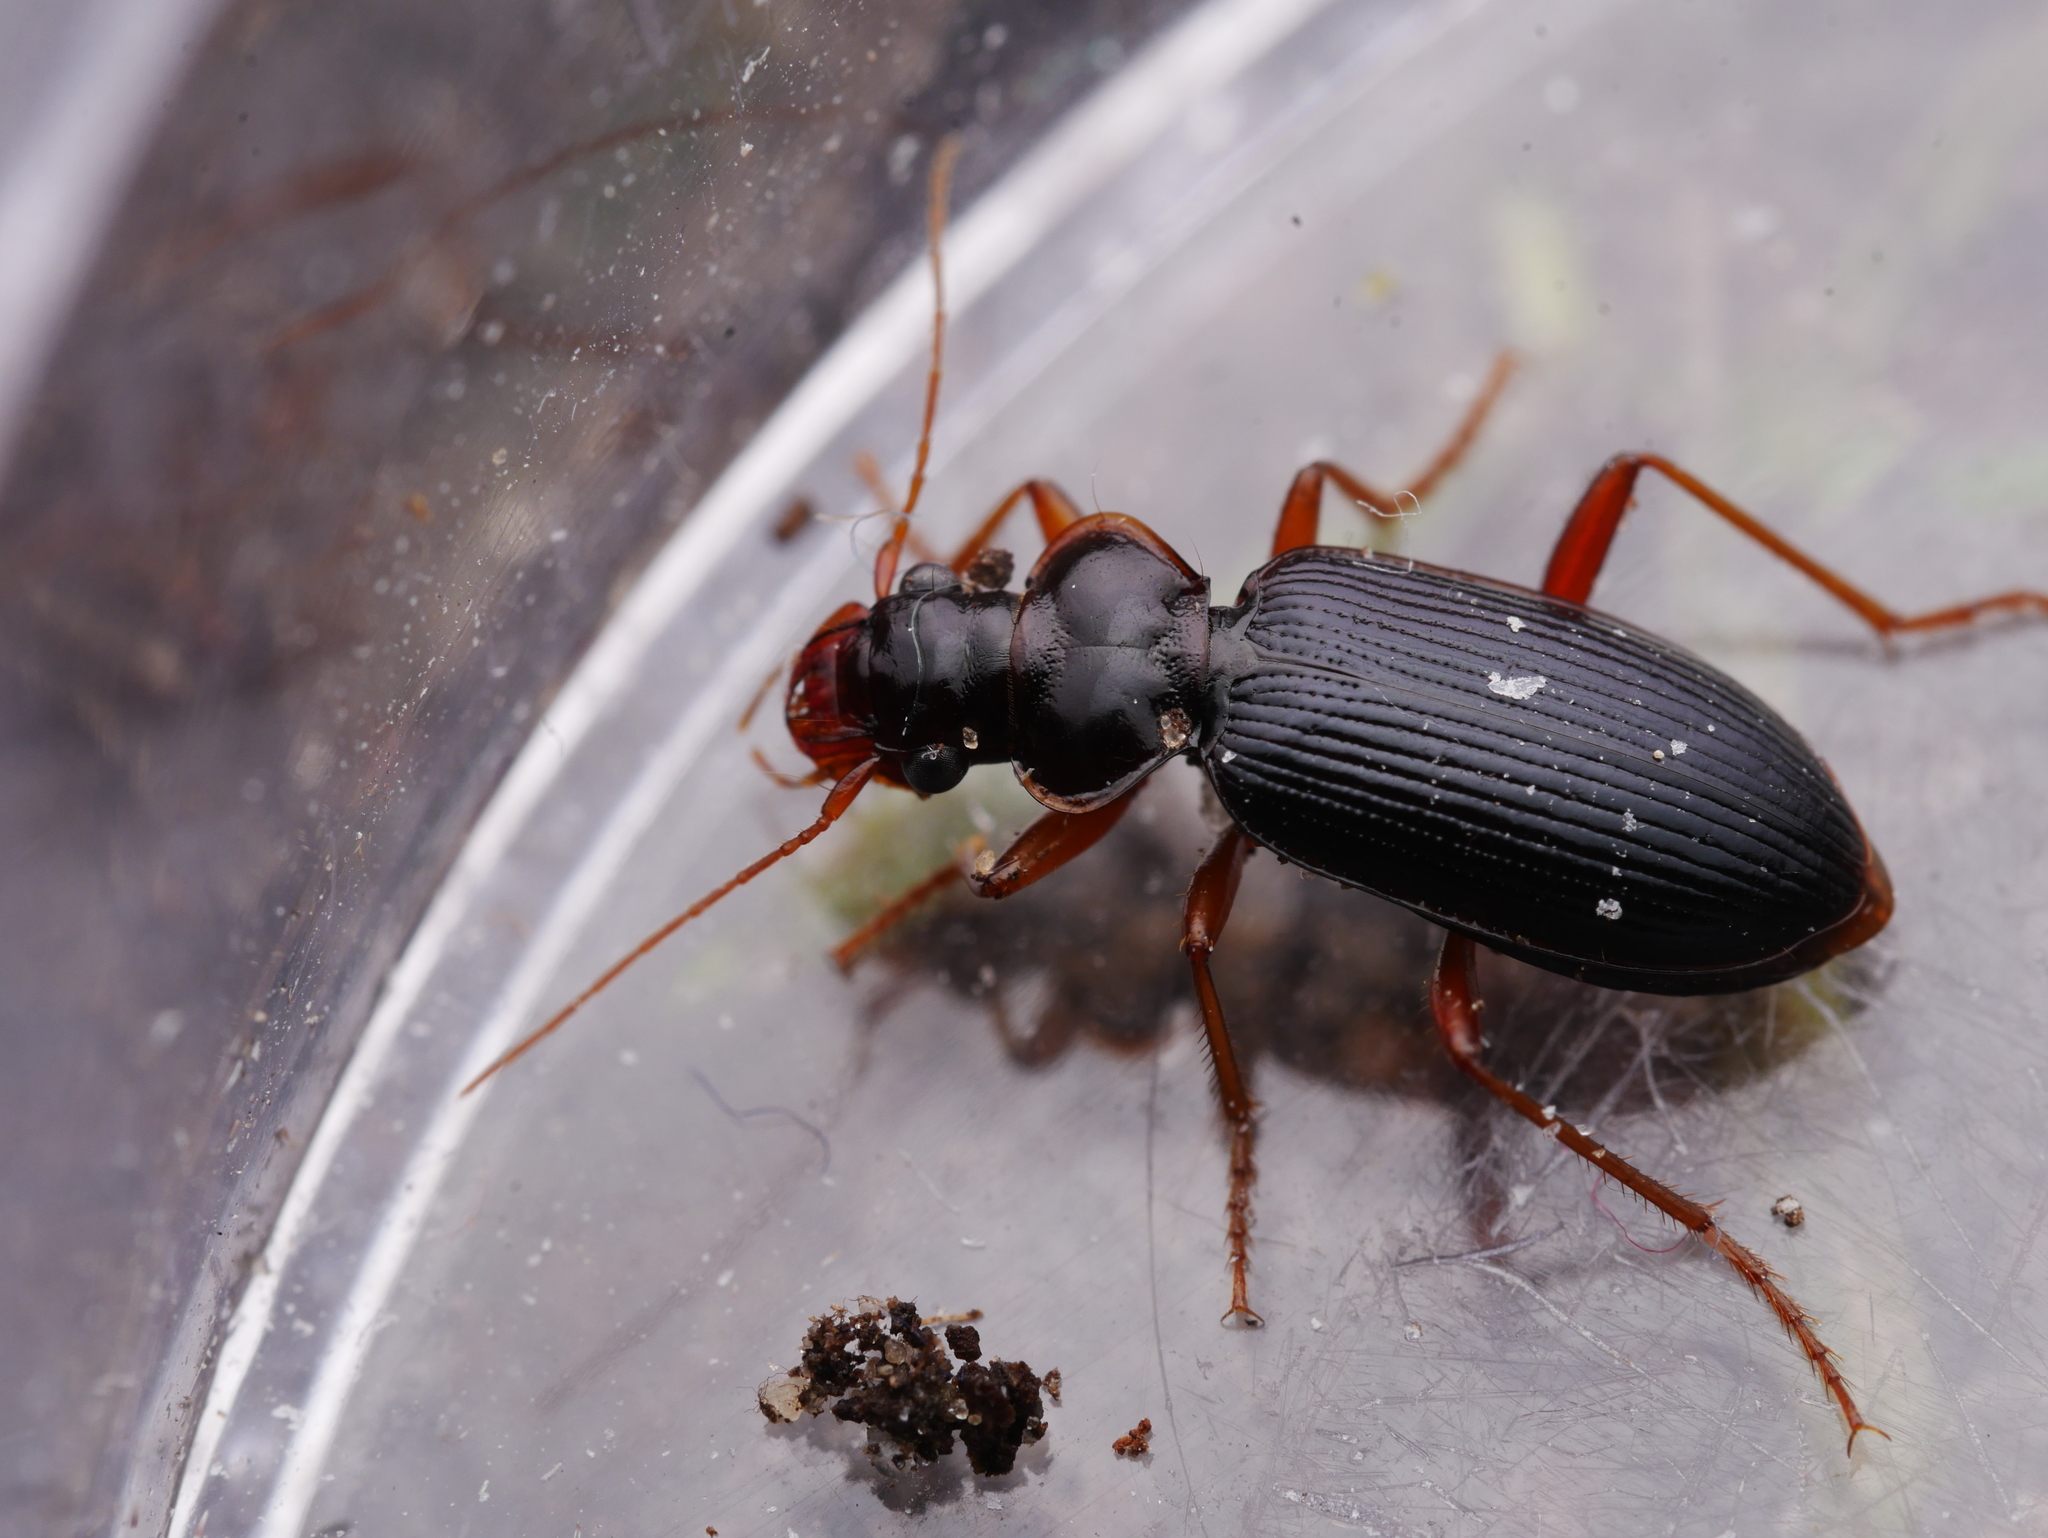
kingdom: Animalia
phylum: Arthropoda
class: Insecta
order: Coleoptera
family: Carabidae
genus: Leistus
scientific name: Leistus rufomarginatus
